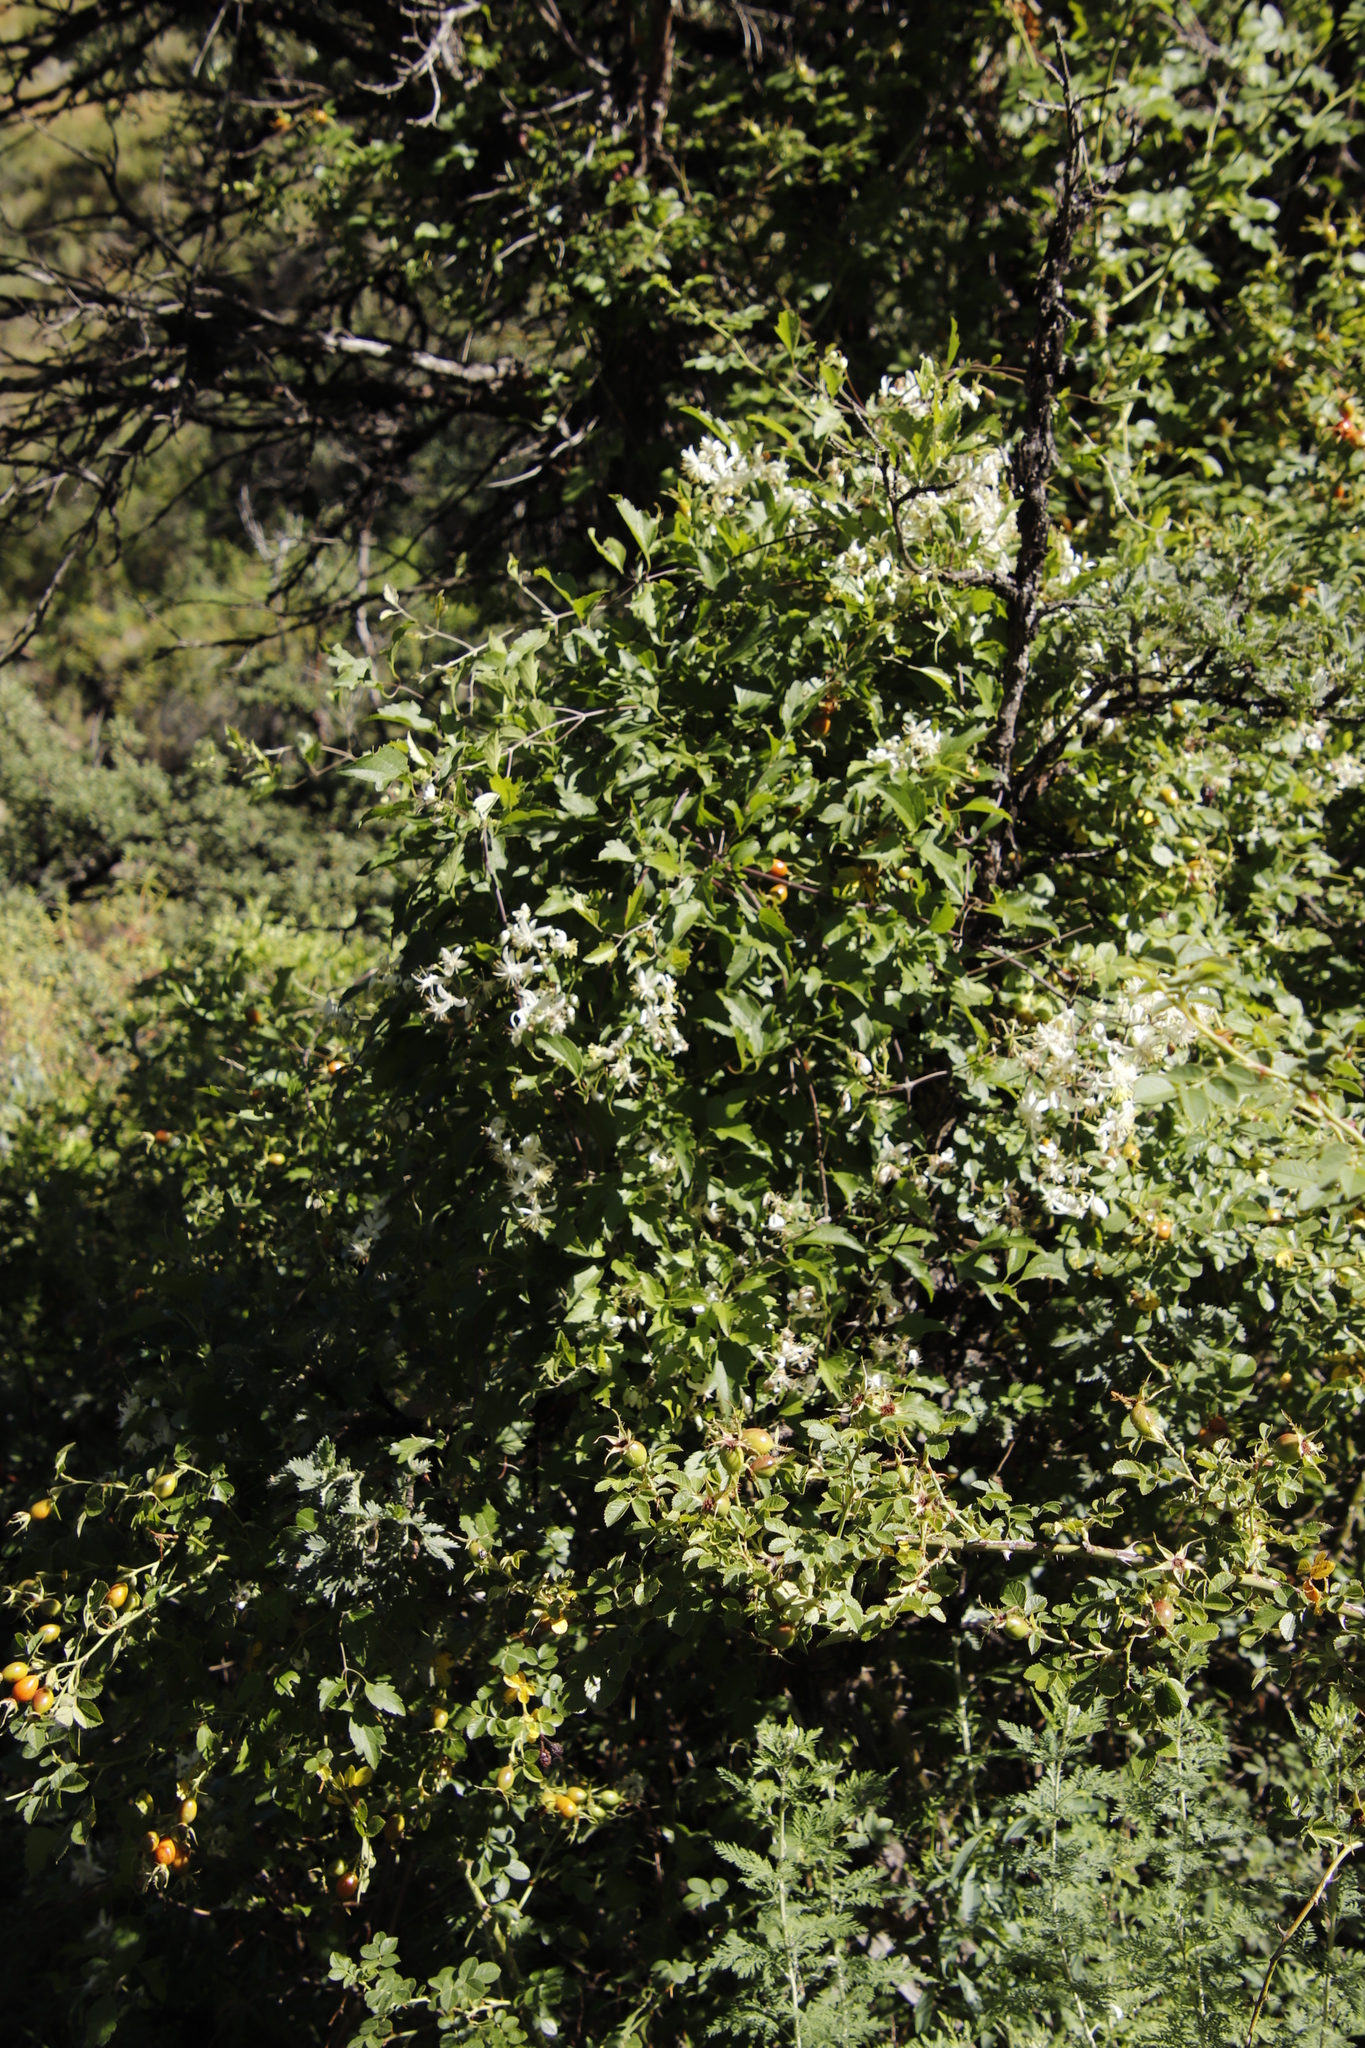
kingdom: Plantae
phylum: Tracheophyta
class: Magnoliopsida
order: Ranunculales
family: Ranunculaceae
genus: Clematis
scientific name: Clematis brachiata
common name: Traveler's-joy
